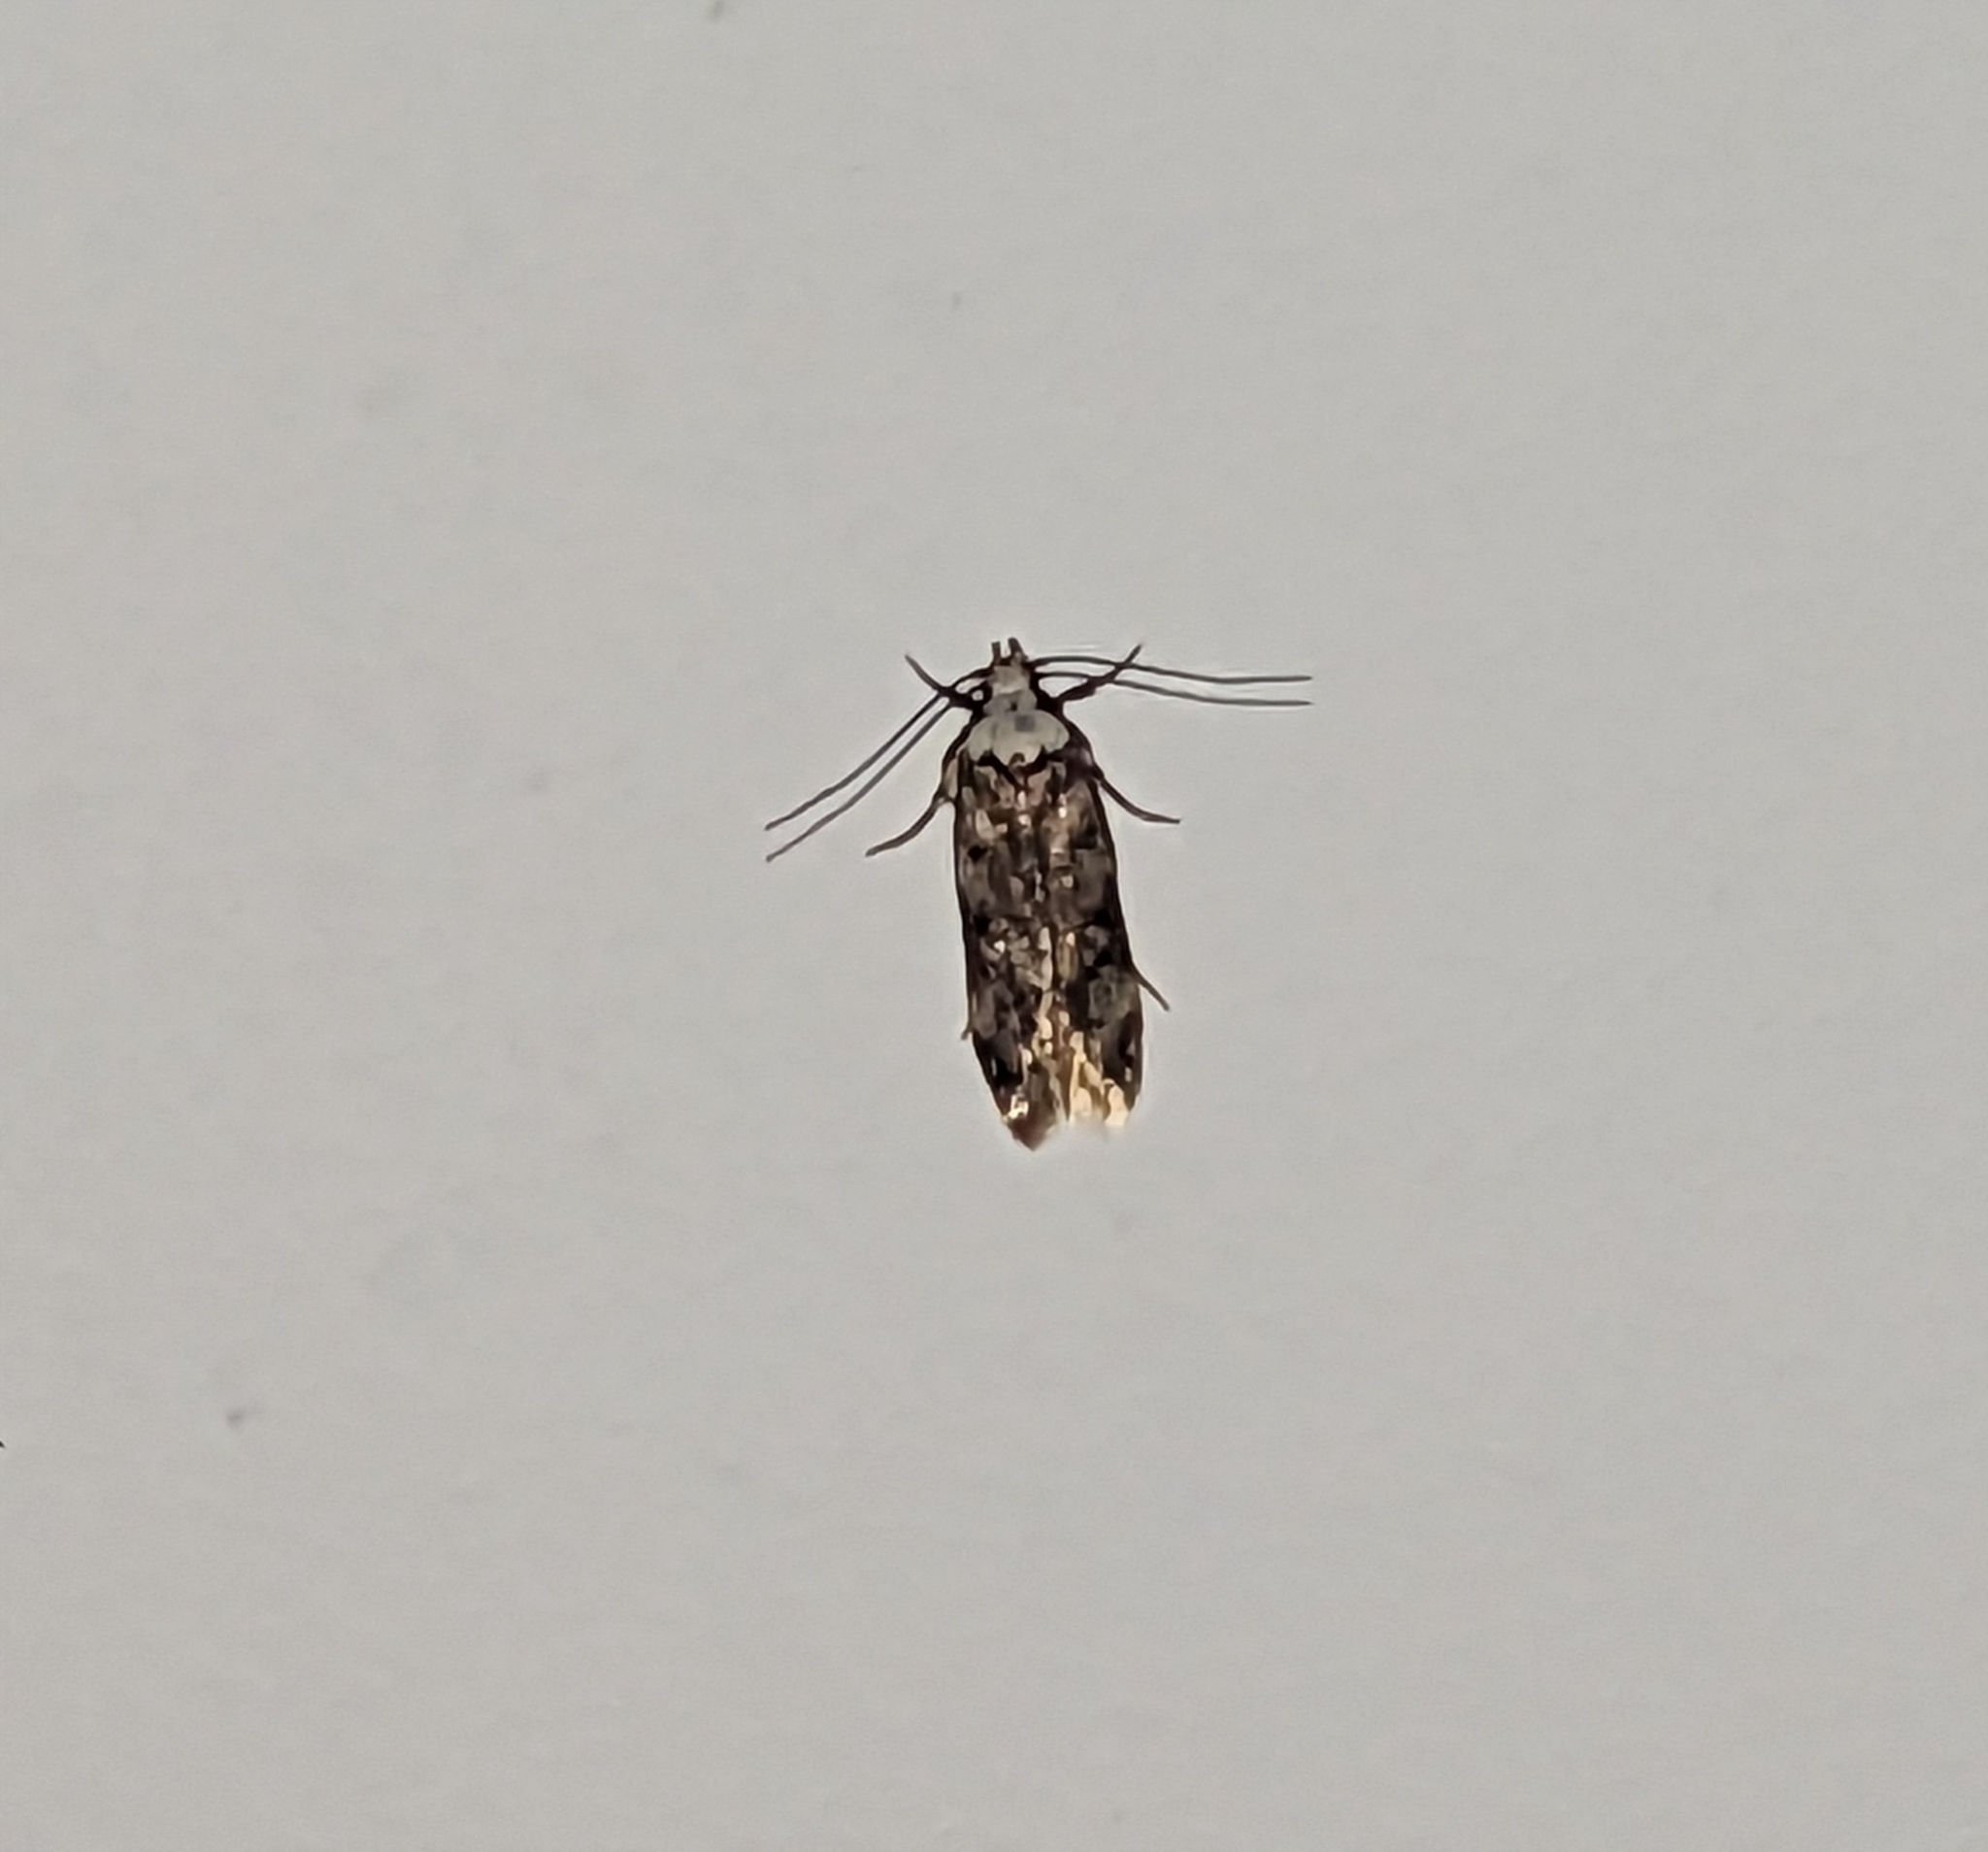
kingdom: Animalia
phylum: Arthropoda
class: Insecta
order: Lepidoptera
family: Oecophoridae
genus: Endrosis
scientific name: Endrosis sarcitrella
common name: White-shouldered house moth
